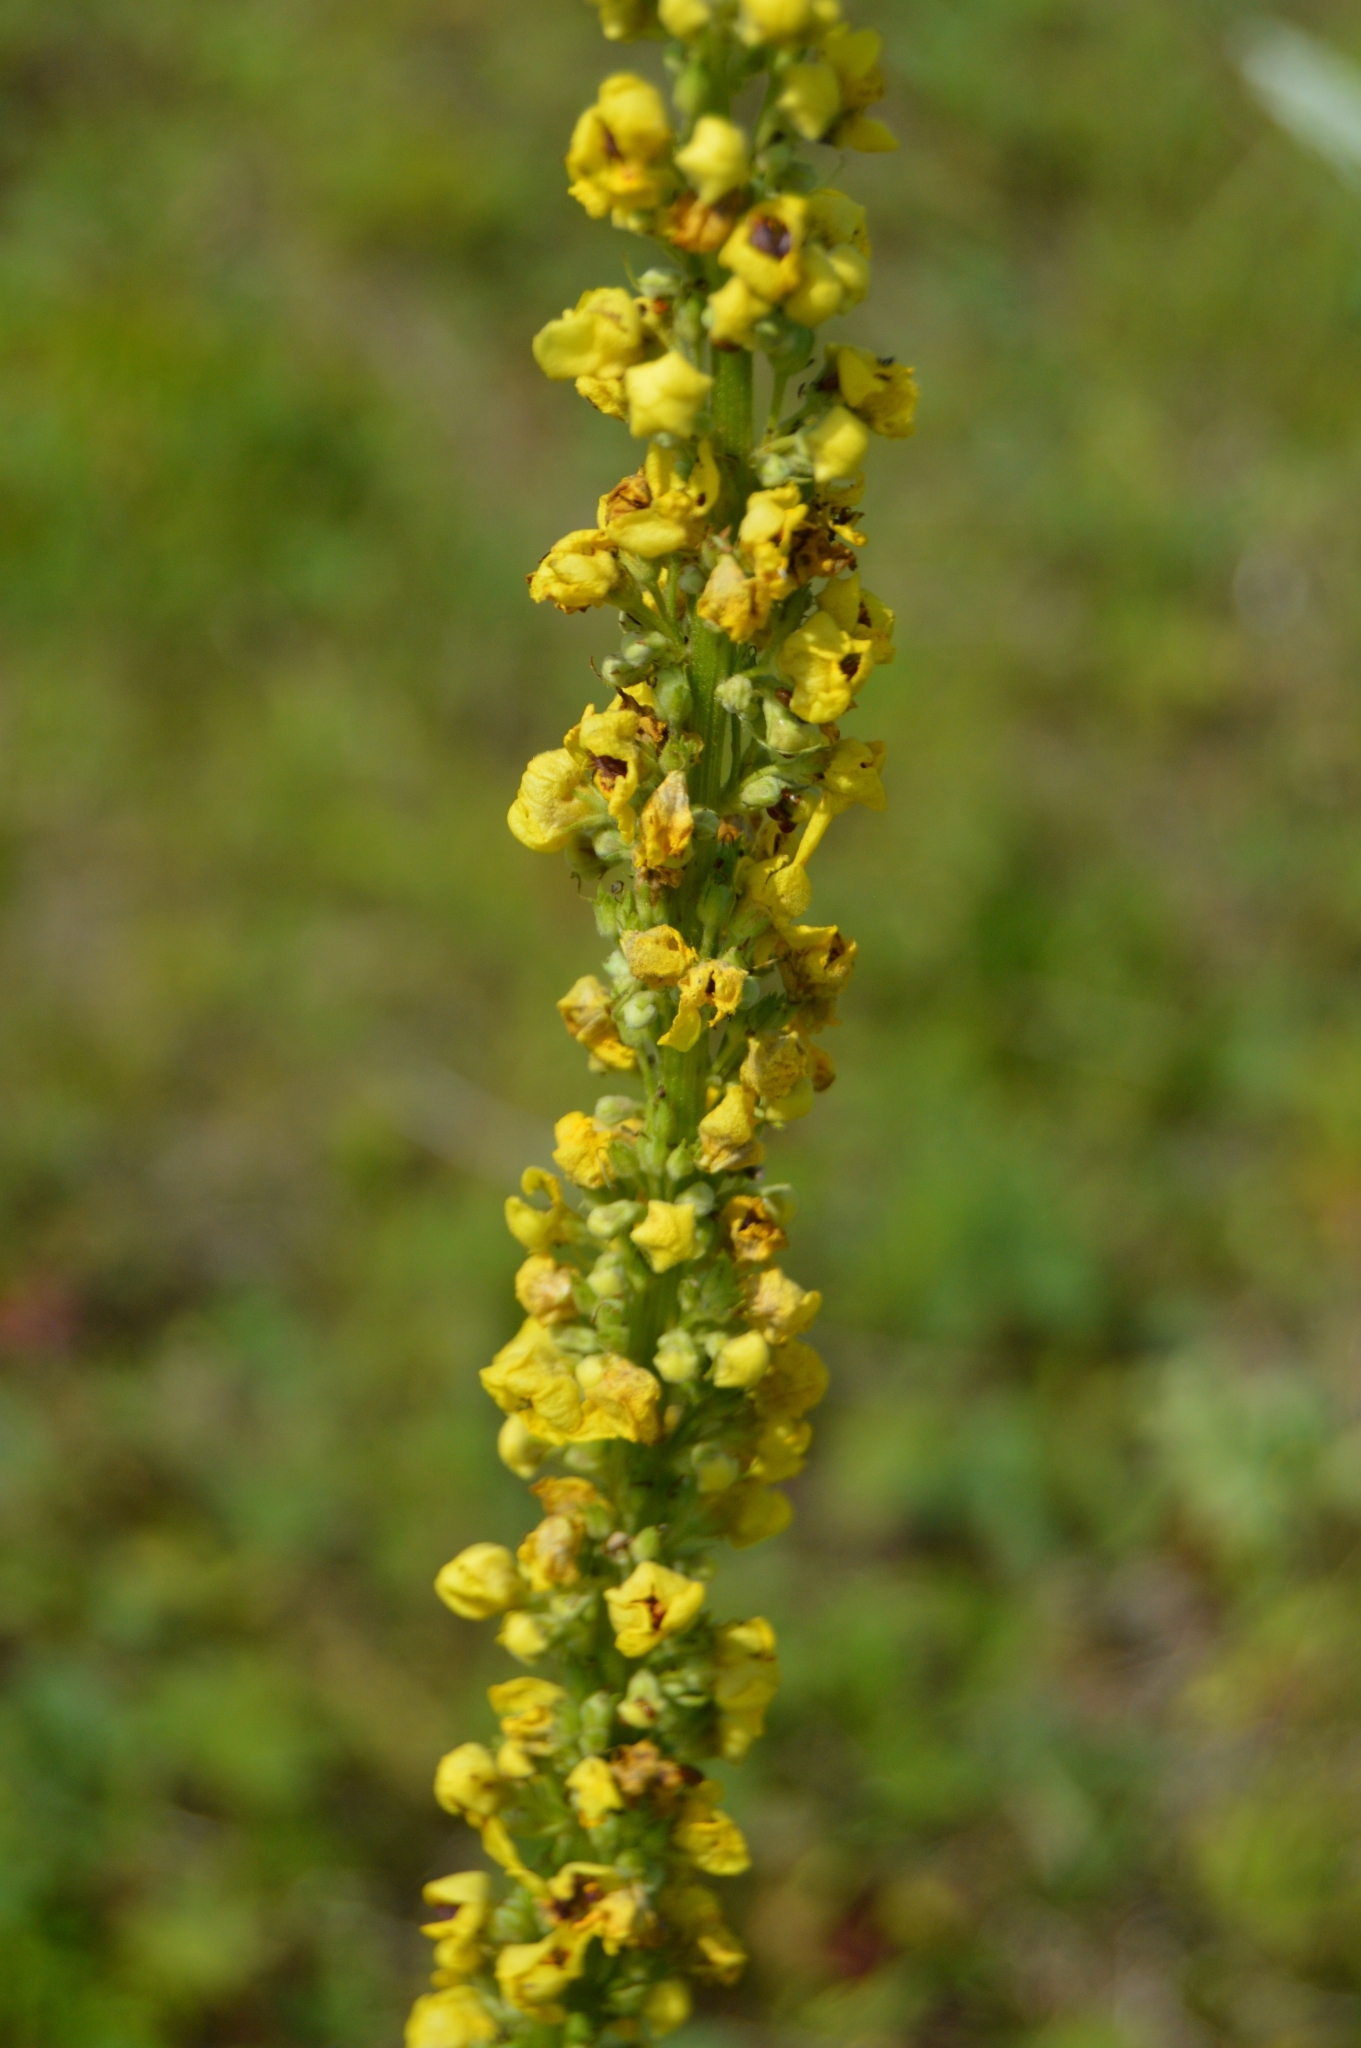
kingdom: Plantae
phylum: Tracheophyta
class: Magnoliopsida
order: Lamiales
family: Scrophulariaceae
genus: Verbascum
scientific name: Verbascum nigrum
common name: Dark mullein
